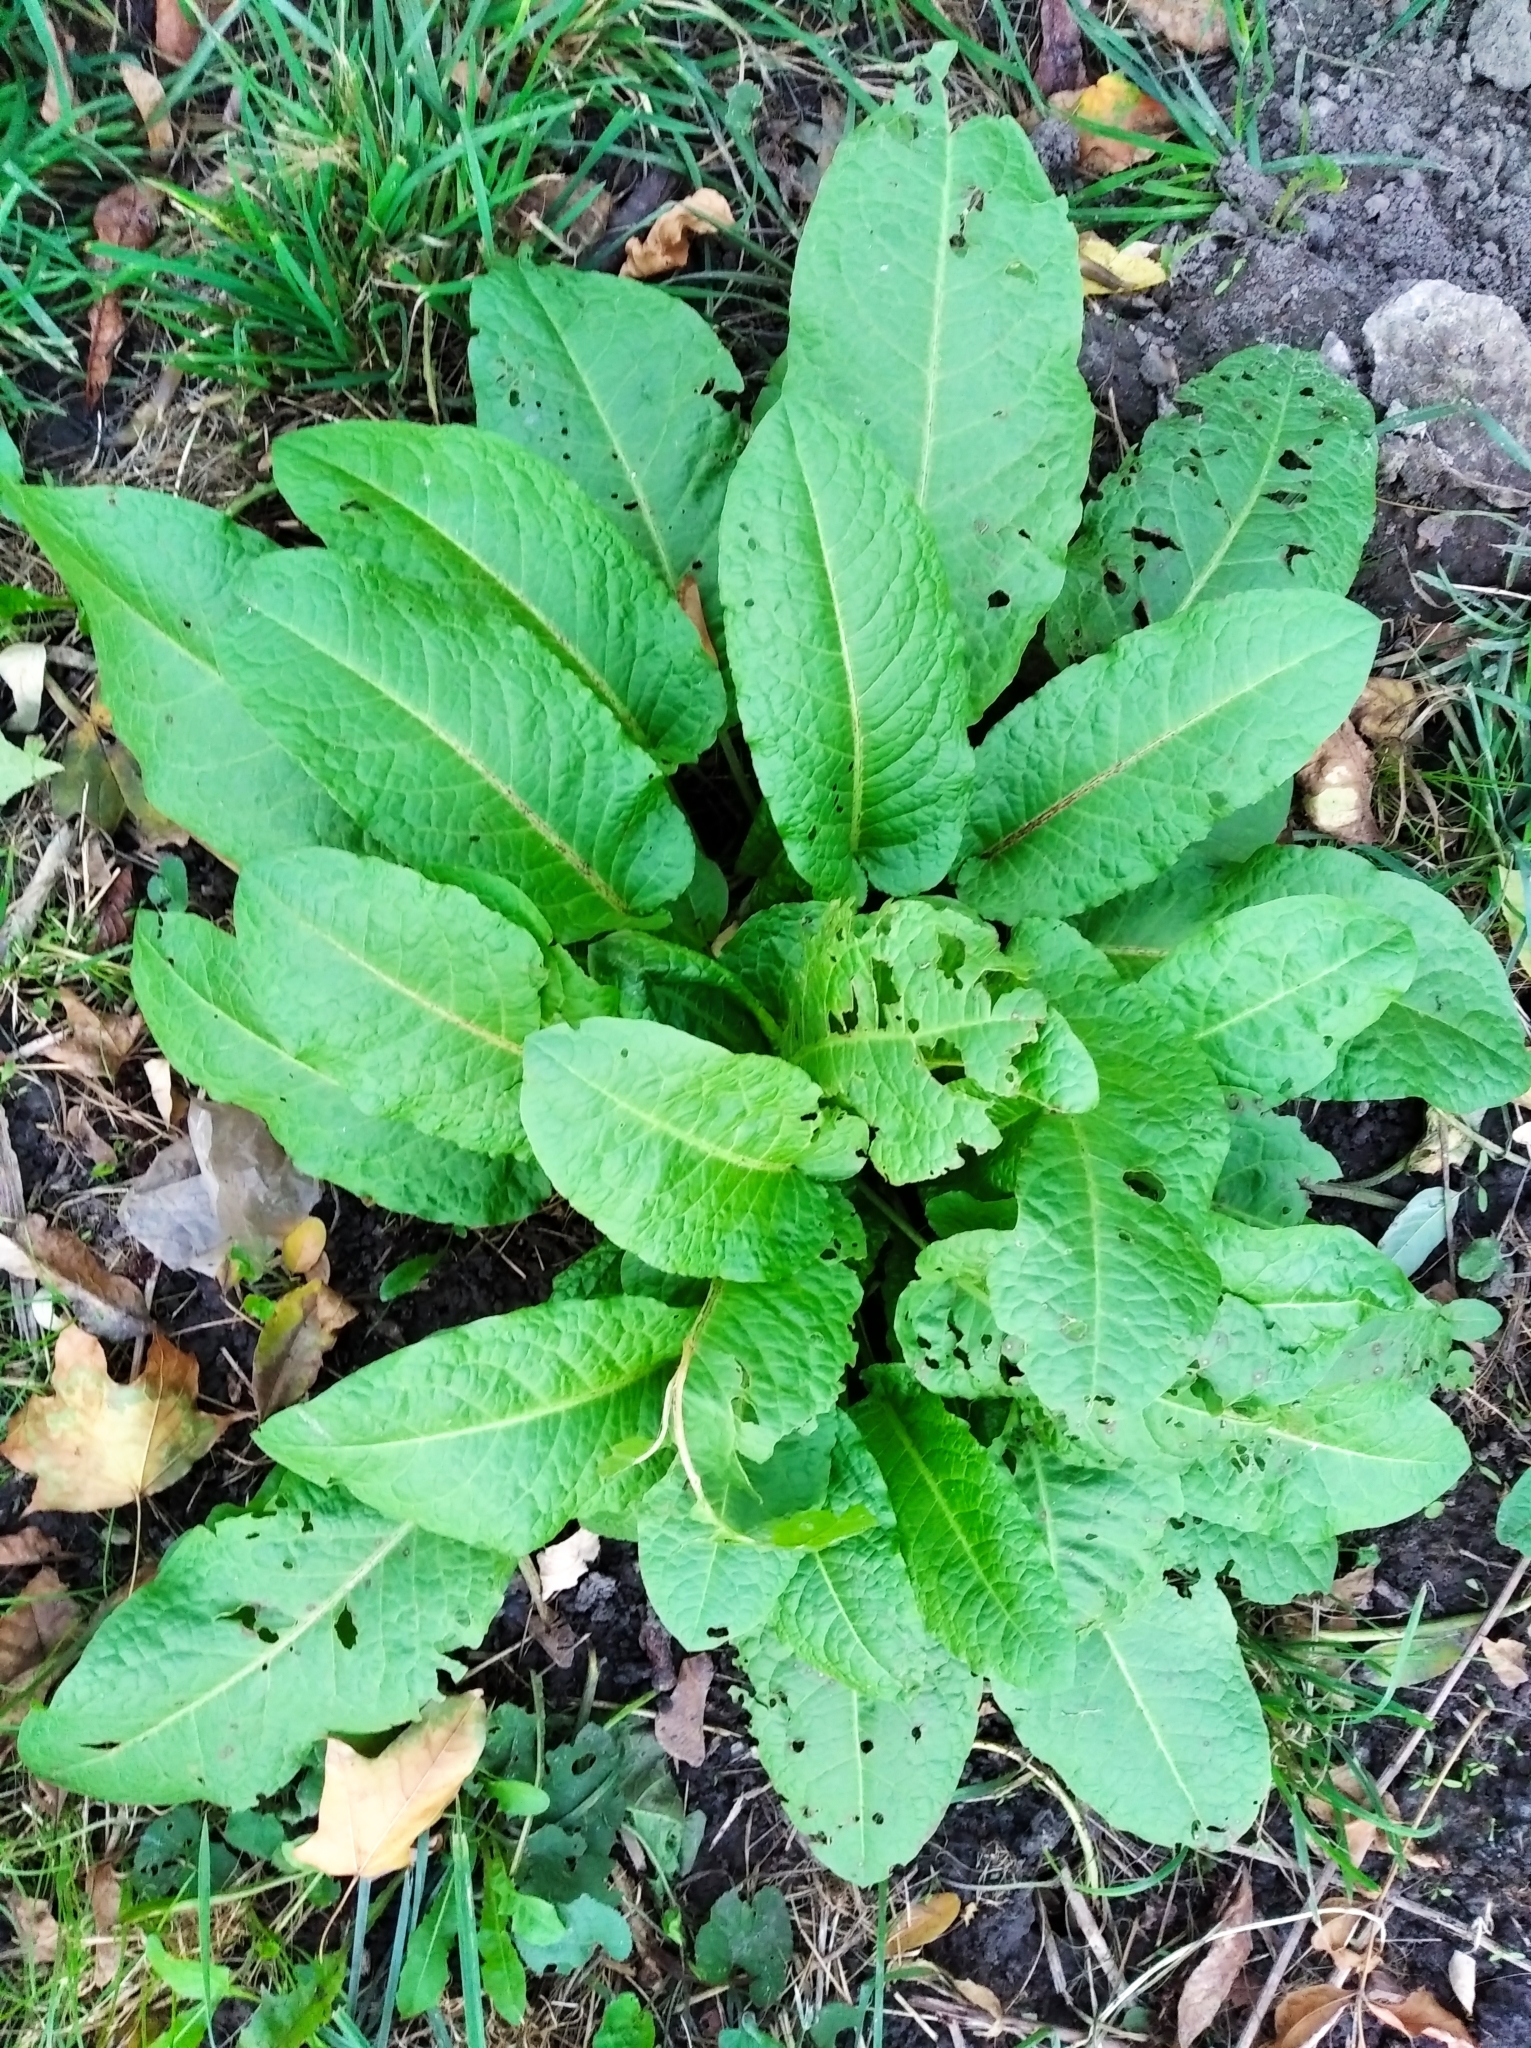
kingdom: Plantae
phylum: Tracheophyta
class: Magnoliopsida
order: Caryophyllales
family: Polygonaceae
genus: Rumex
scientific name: Rumex obtusifolius
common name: Bitter dock
